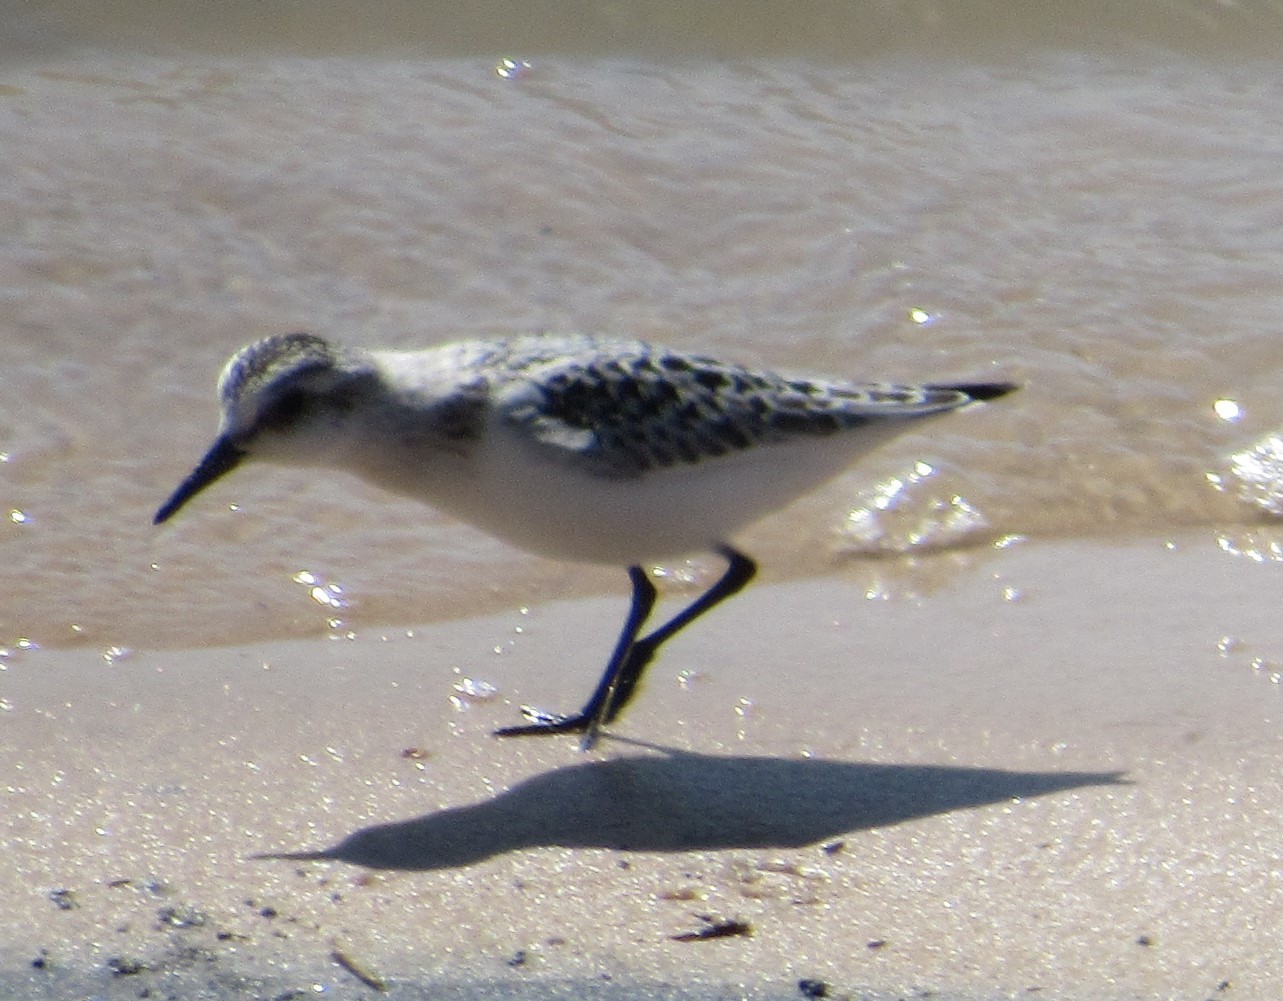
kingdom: Animalia
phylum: Chordata
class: Aves
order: Charadriiformes
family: Scolopacidae
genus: Calidris
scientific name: Calidris alba
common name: Sanderling
